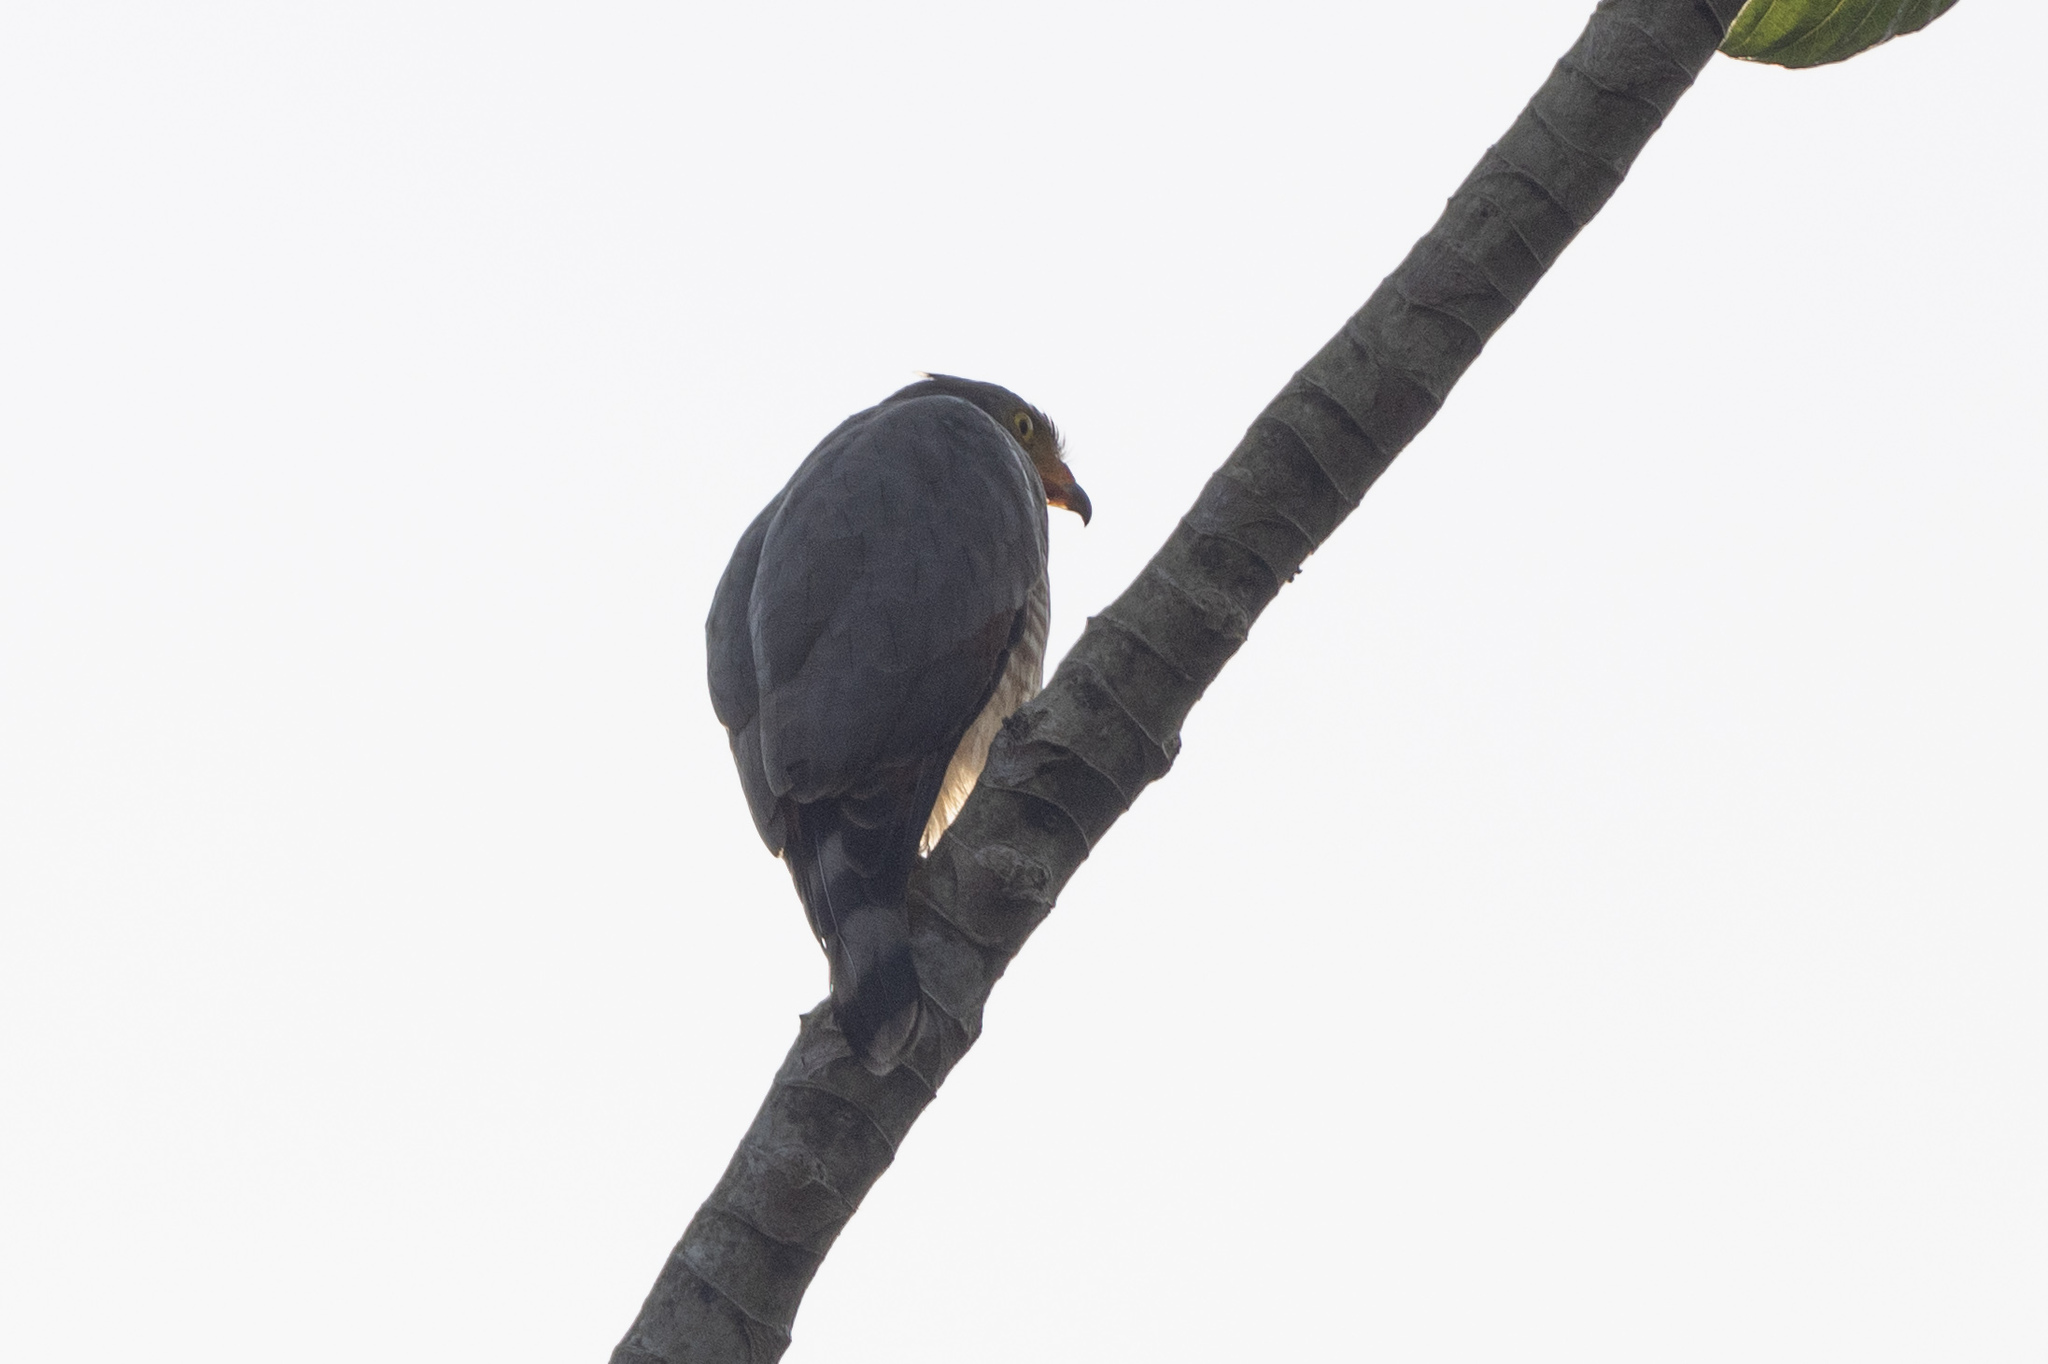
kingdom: Animalia
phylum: Chordata
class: Aves
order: Accipitriformes
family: Accipitridae
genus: Rupornis
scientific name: Rupornis magnirostris
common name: Roadside hawk
